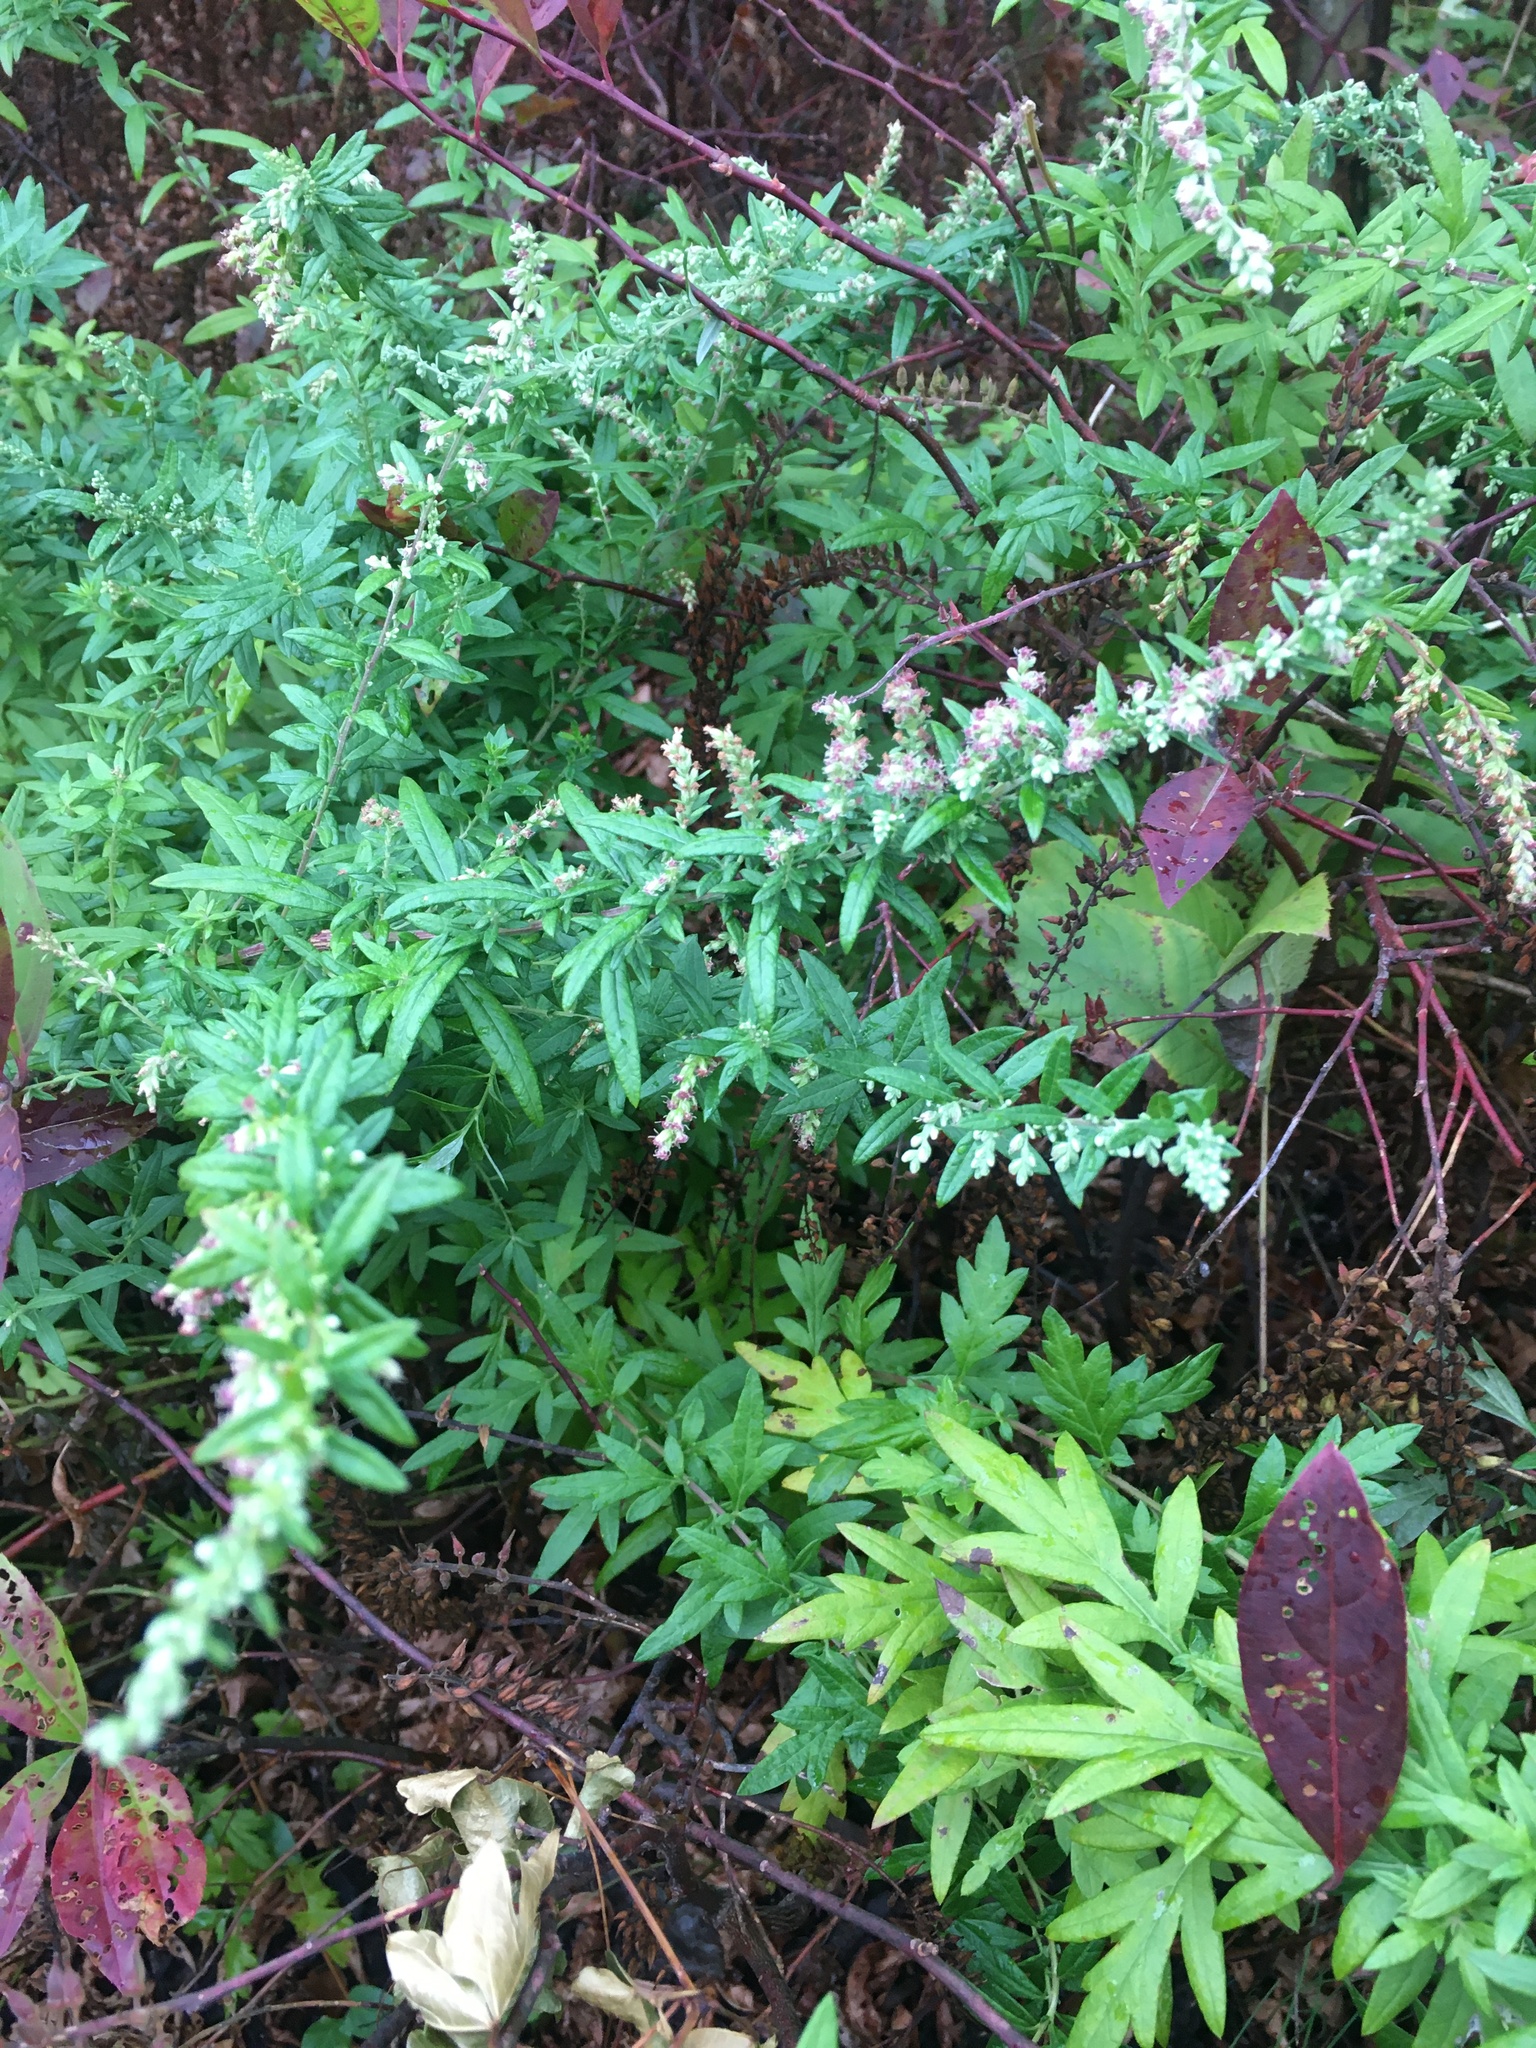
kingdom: Plantae
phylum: Tracheophyta
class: Magnoliopsida
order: Asterales
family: Asteraceae
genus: Artemisia
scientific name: Artemisia vulgaris
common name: Mugwort
